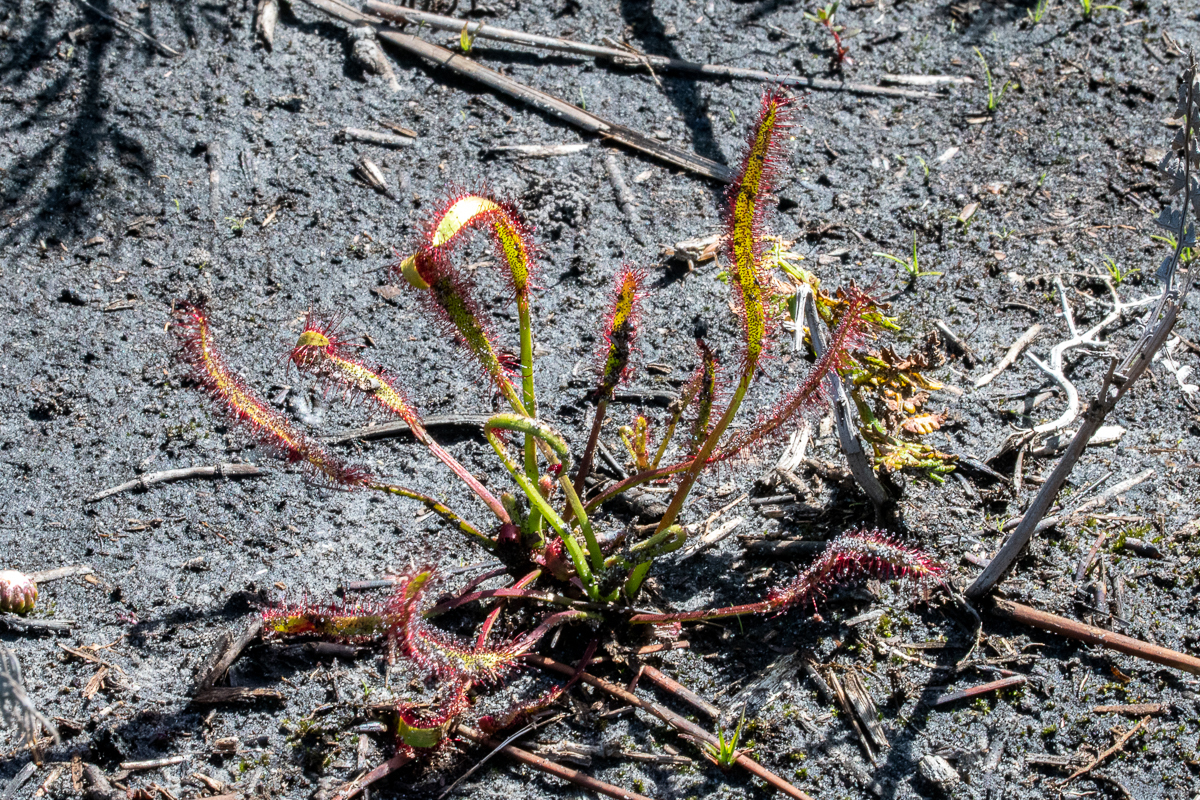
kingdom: Plantae
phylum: Tracheophyta
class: Magnoliopsida
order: Caryophyllales
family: Droseraceae
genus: Drosera
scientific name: Drosera capensis
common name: Cape sundew
